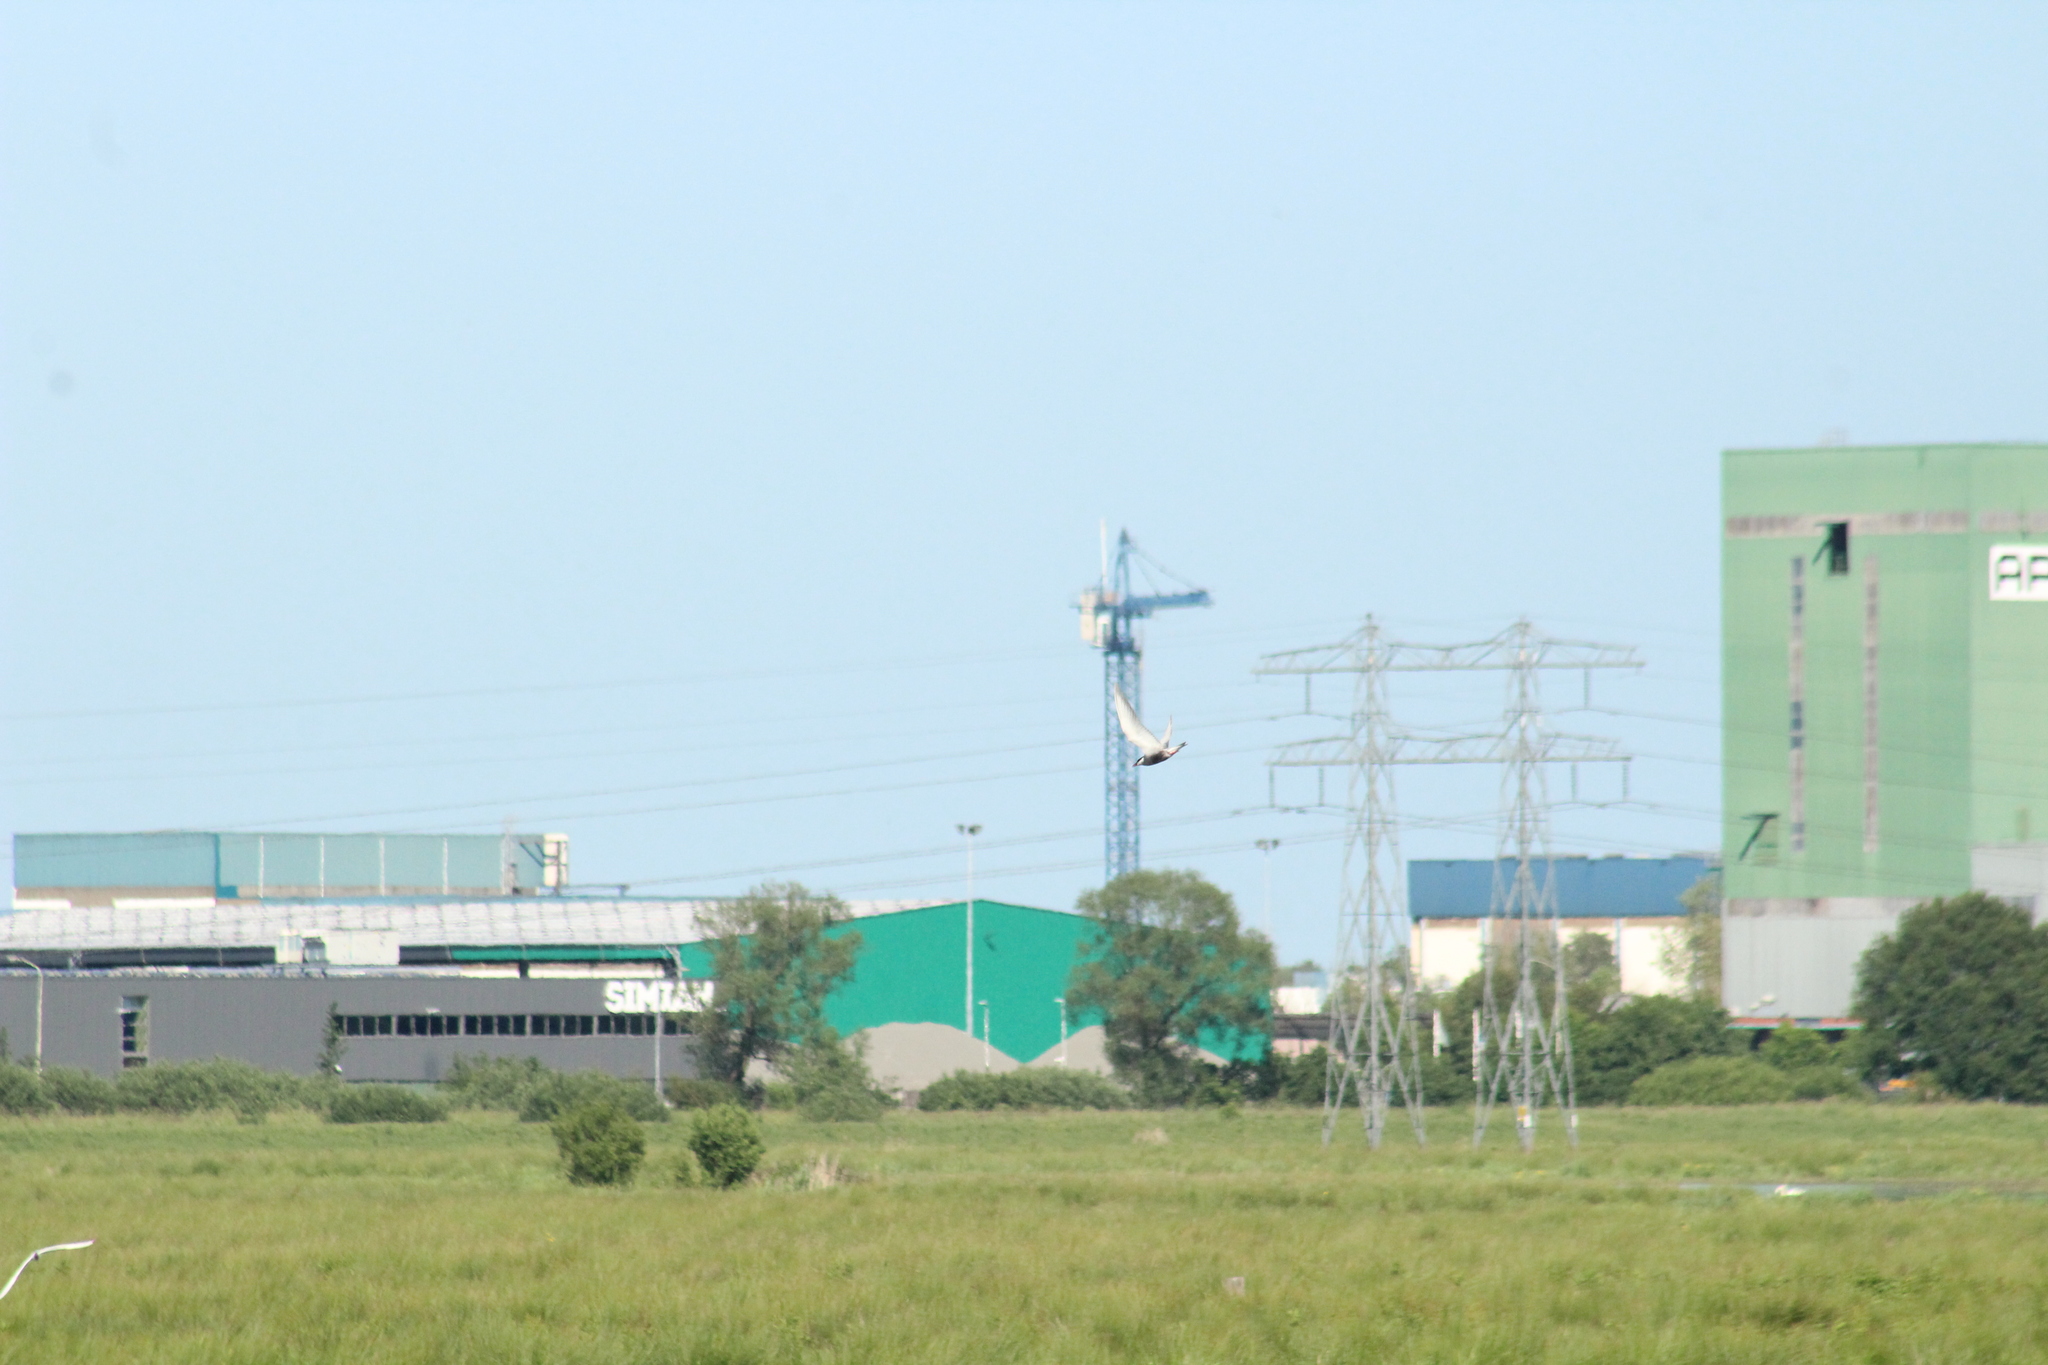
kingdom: Animalia
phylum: Chordata
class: Aves
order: Charadriiformes
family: Laridae
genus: Chlidonias
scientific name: Chlidonias hybrida
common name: Whiskered tern
